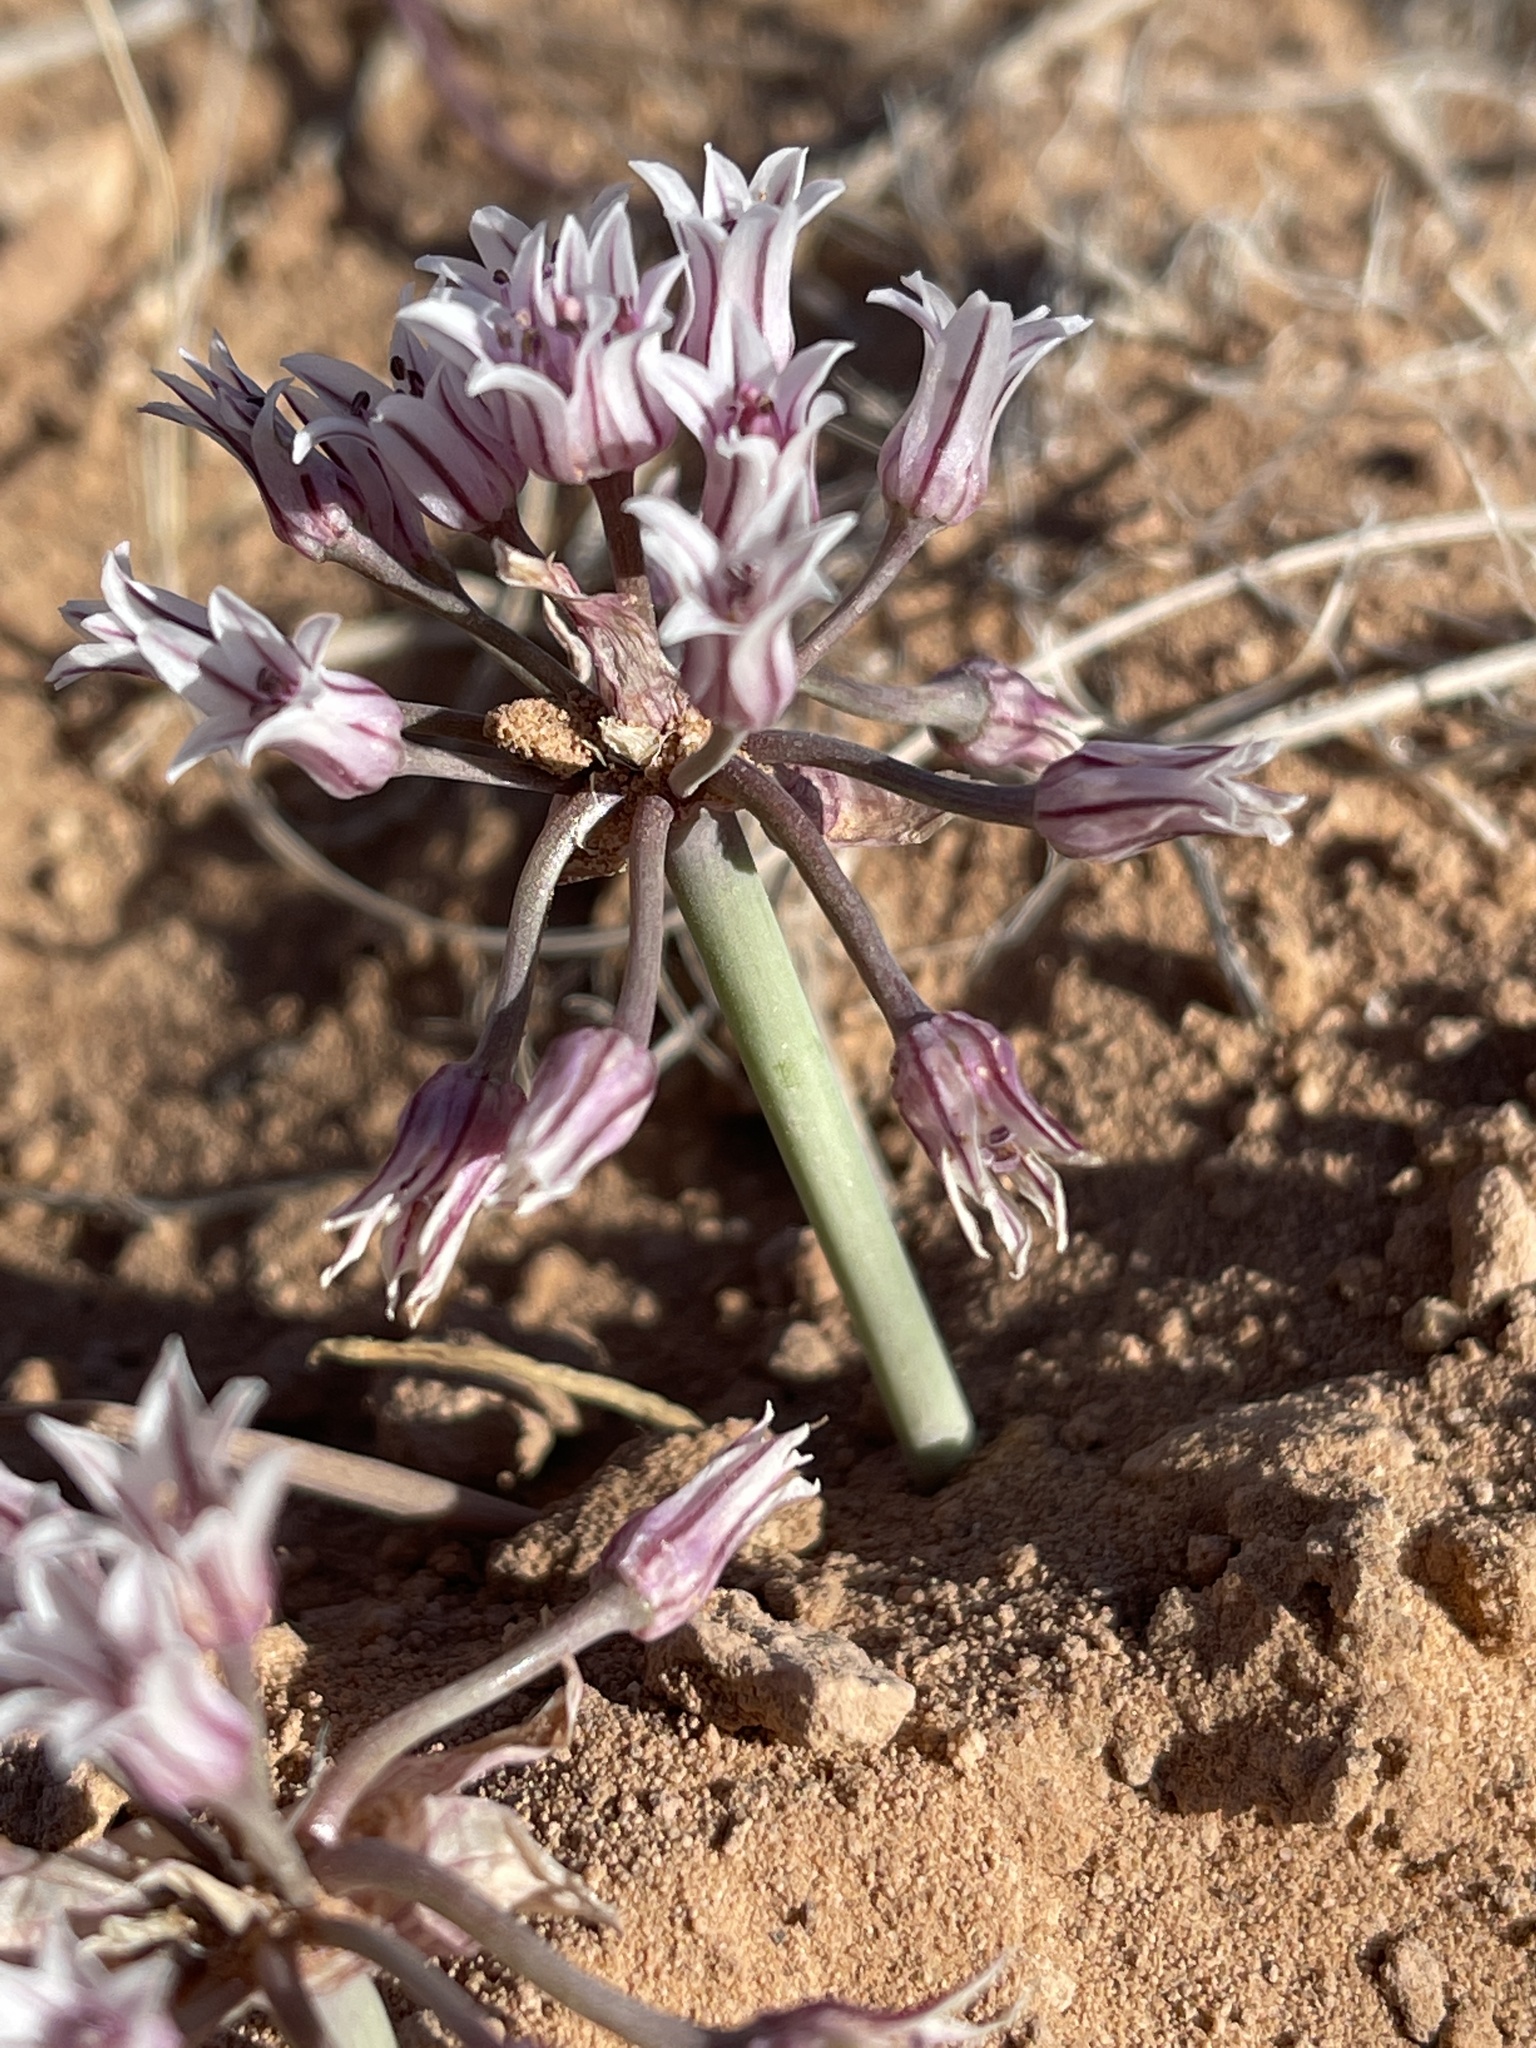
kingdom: Plantae
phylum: Tracheophyta
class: Liliopsida
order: Asparagales
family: Amaryllidaceae
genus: Allium
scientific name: Allium macropetalum
